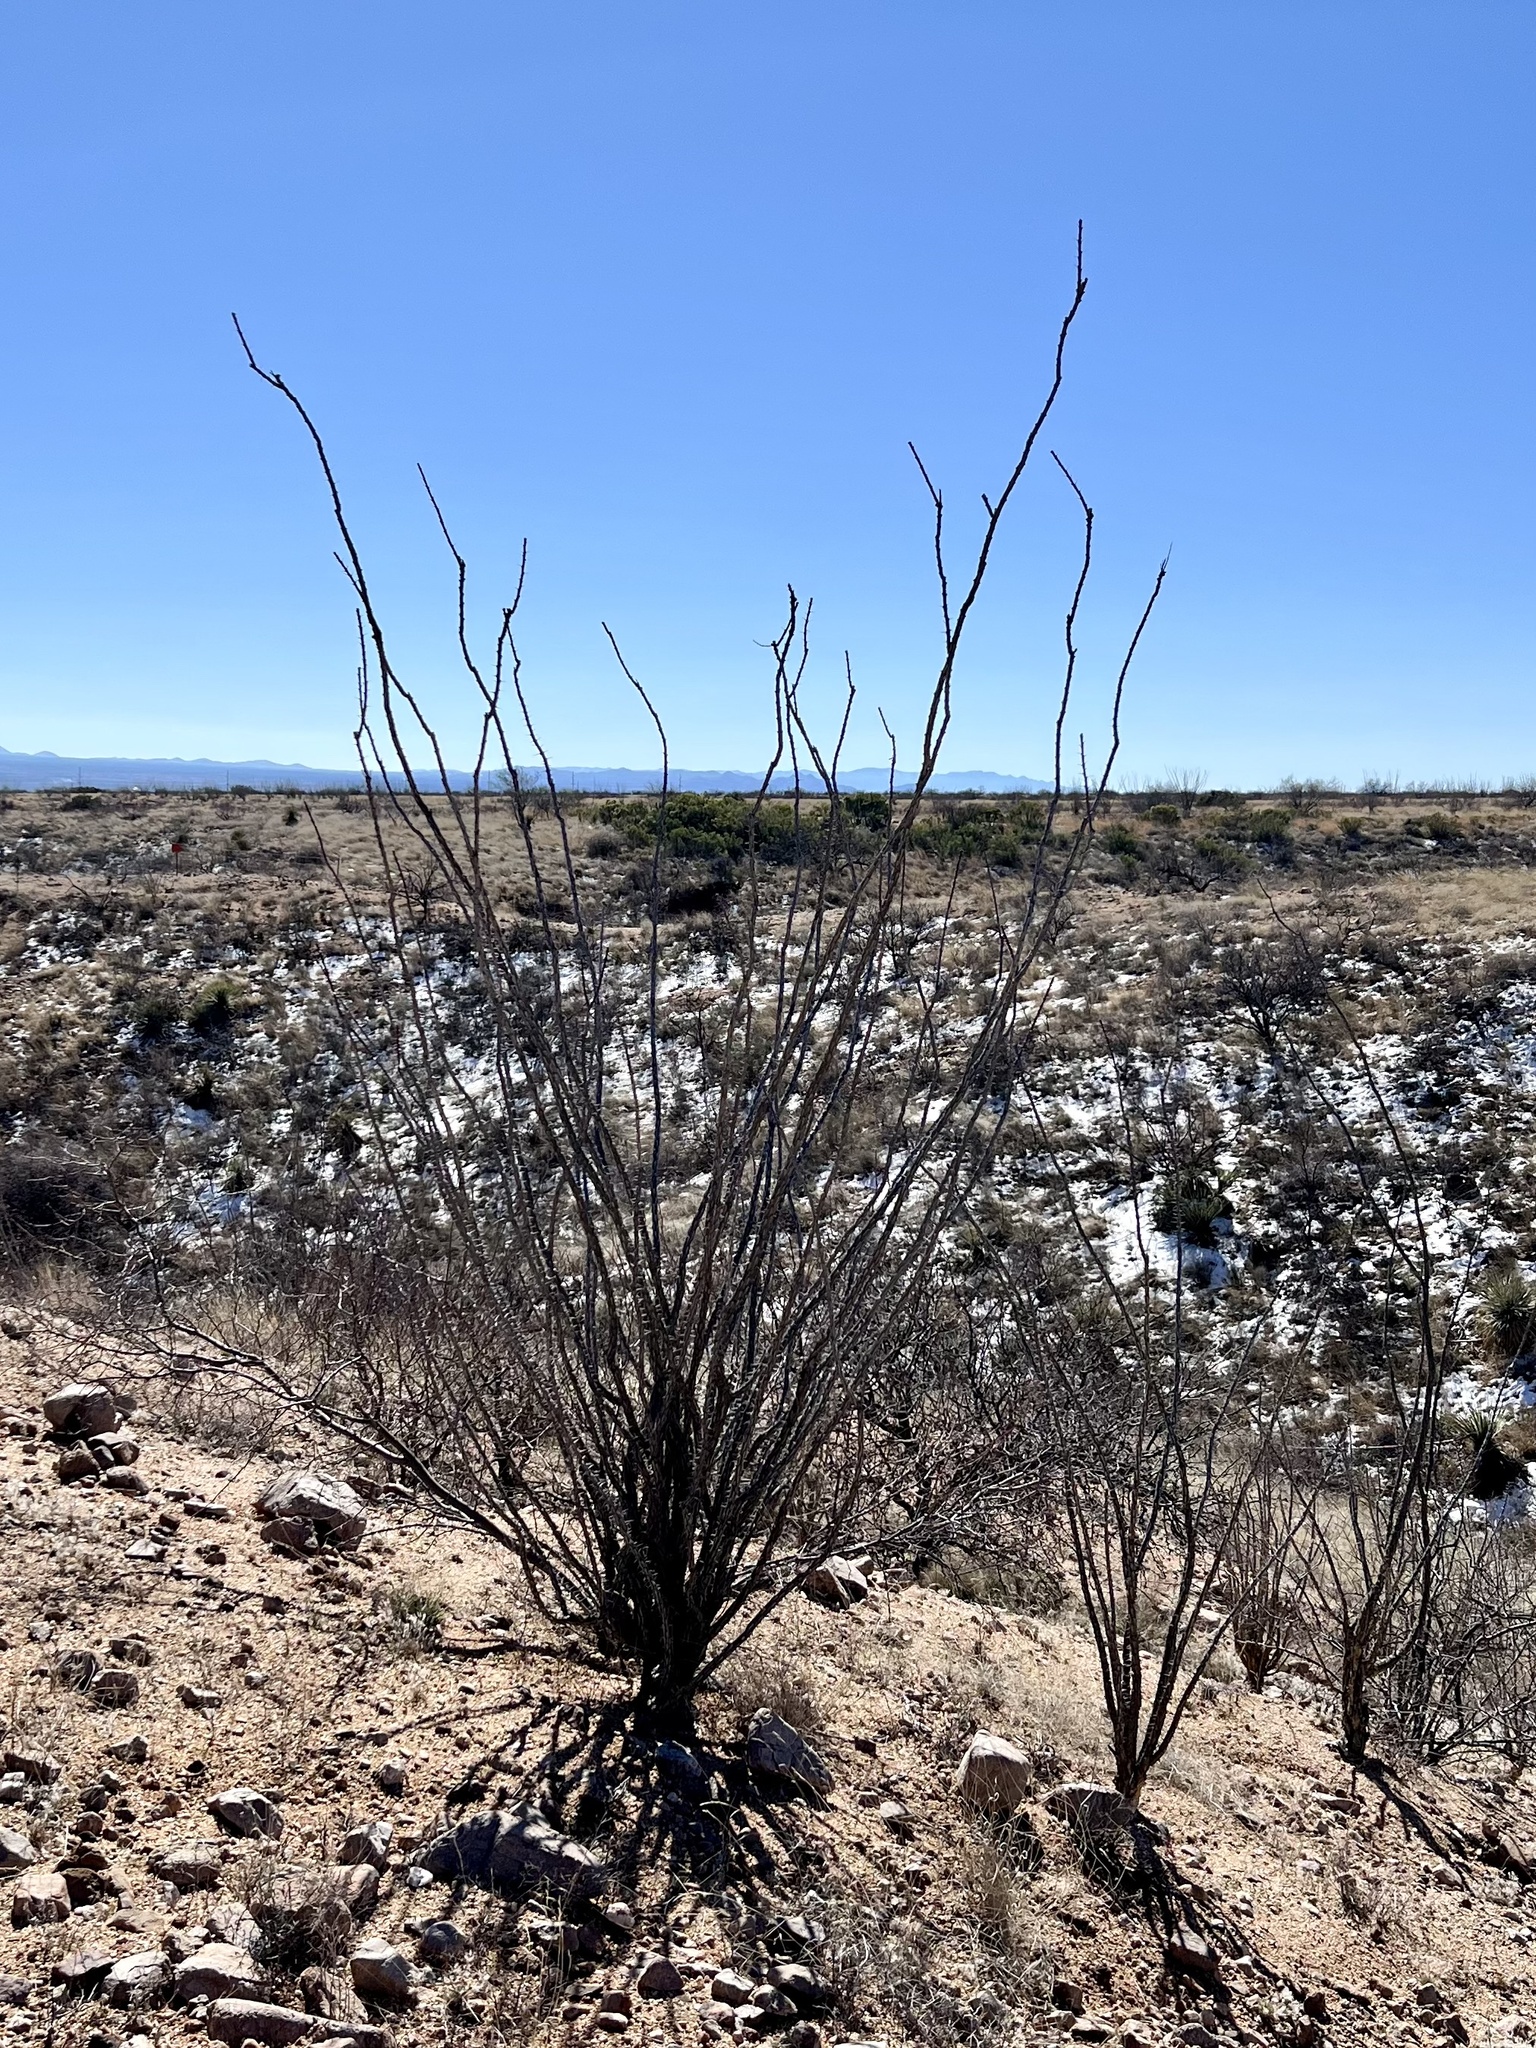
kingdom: Plantae
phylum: Tracheophyta
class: Magnoliopsida
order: Ericales
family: Fouquieriaceae
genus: Fouquieria
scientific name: Fouquieria splendens
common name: Vine-cactus
